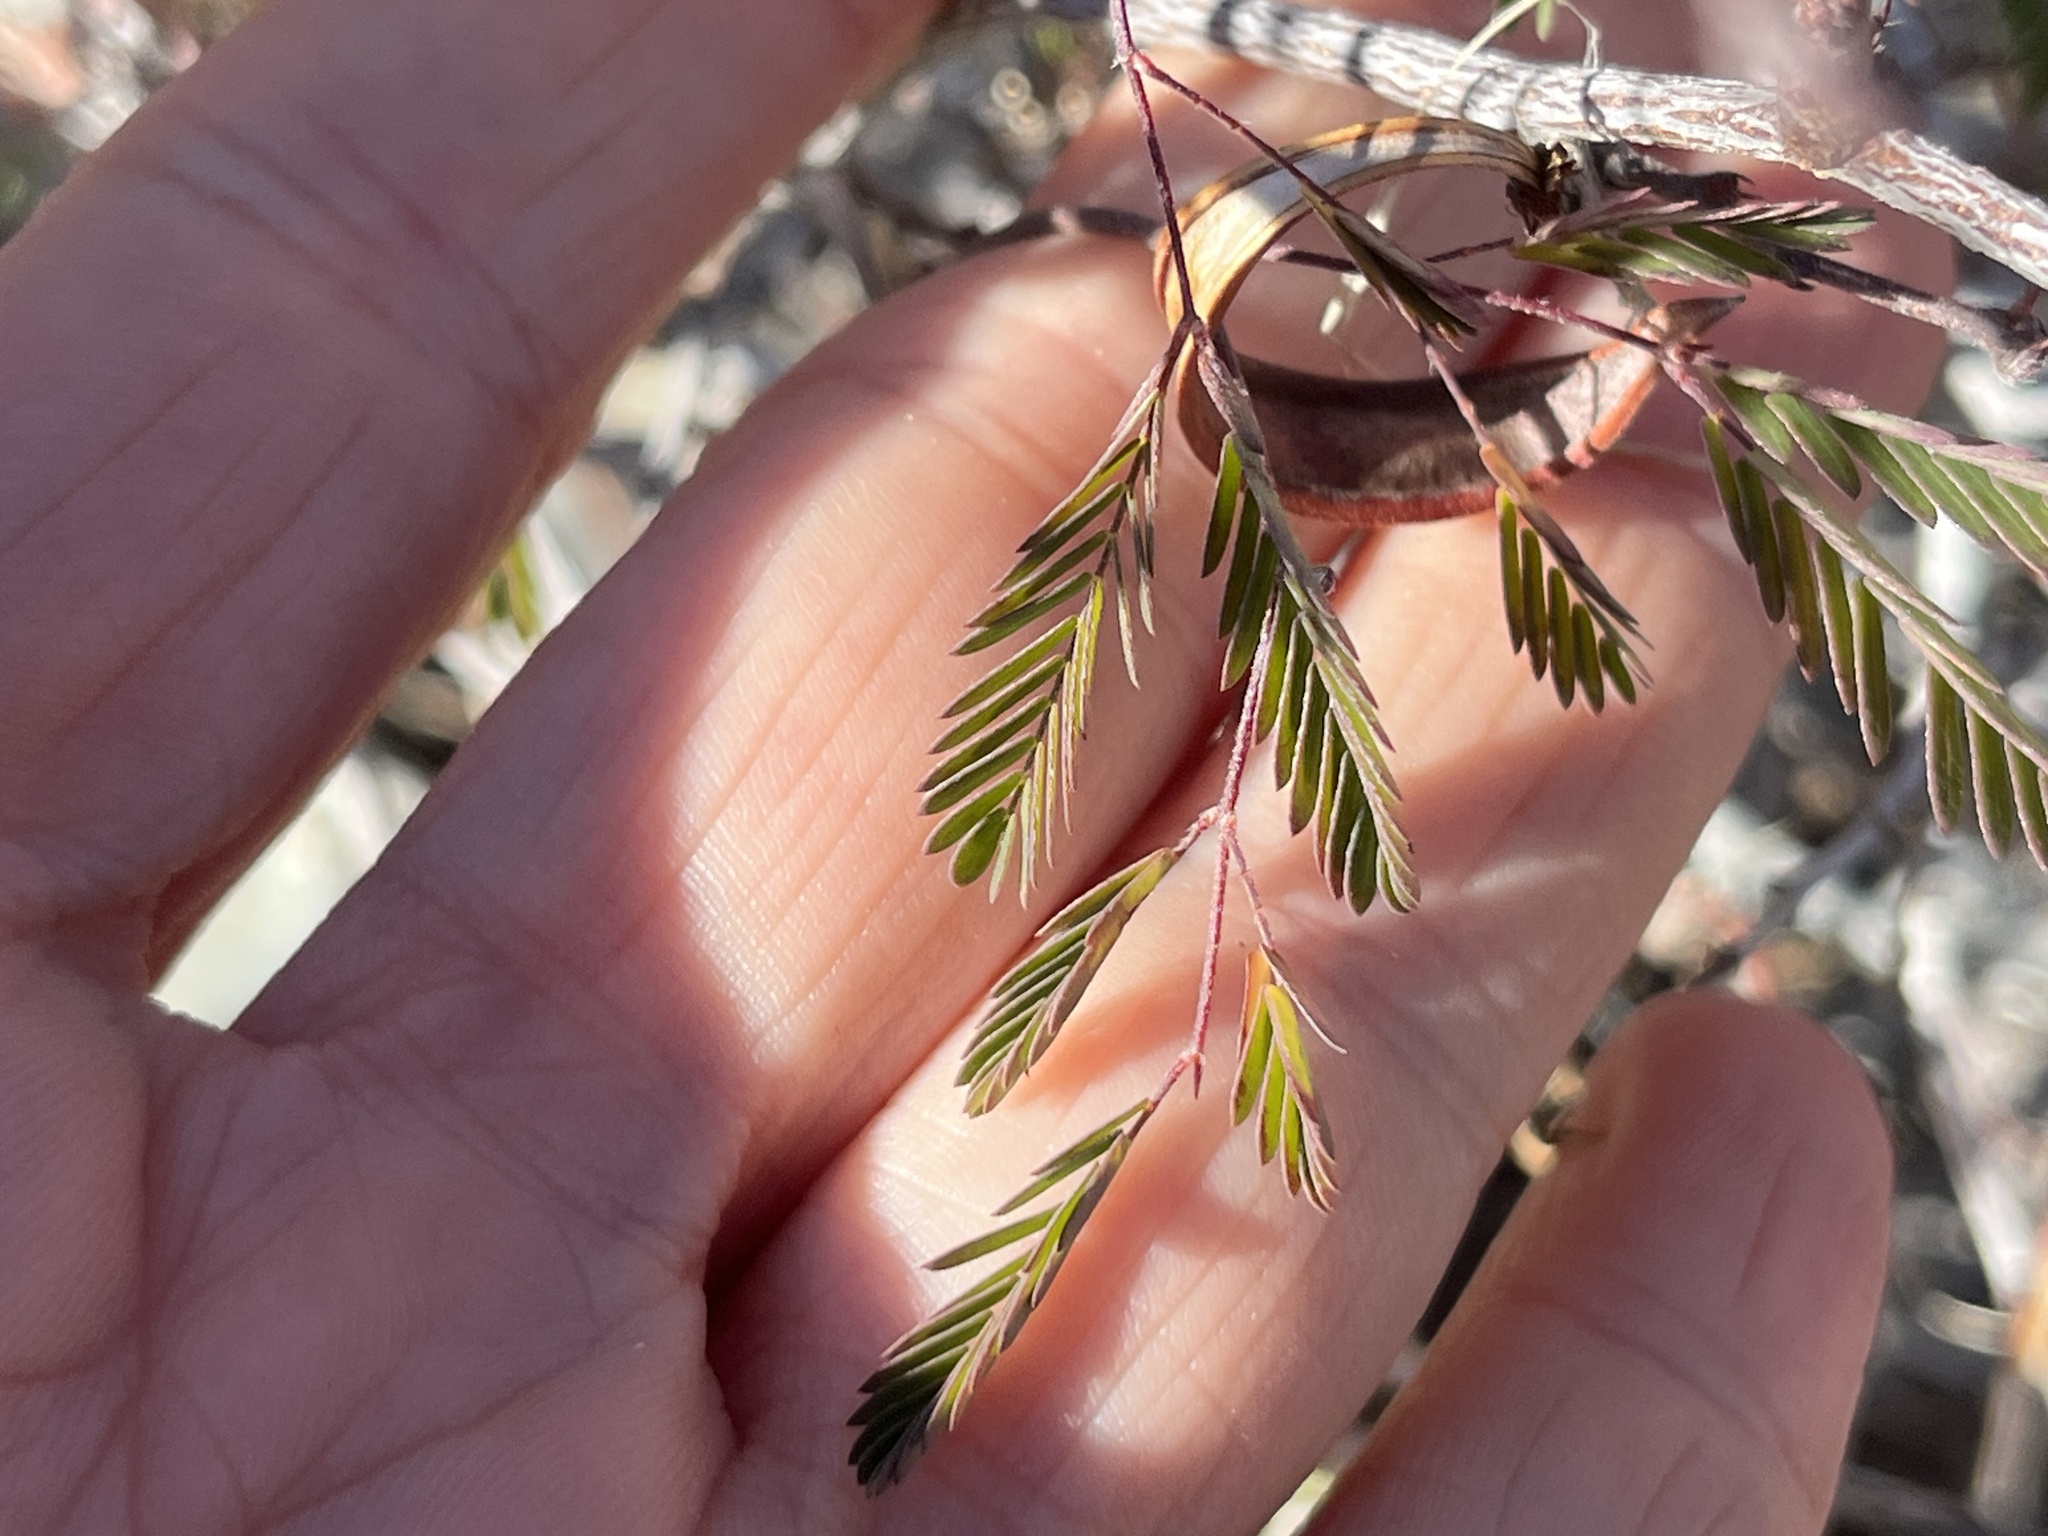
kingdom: Plantae
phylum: Tracheophyta
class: Magnoliopsida
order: Fabales
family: Fabaceae
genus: Calliandra
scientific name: Calliandra eriophylla
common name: Fairy-duster
